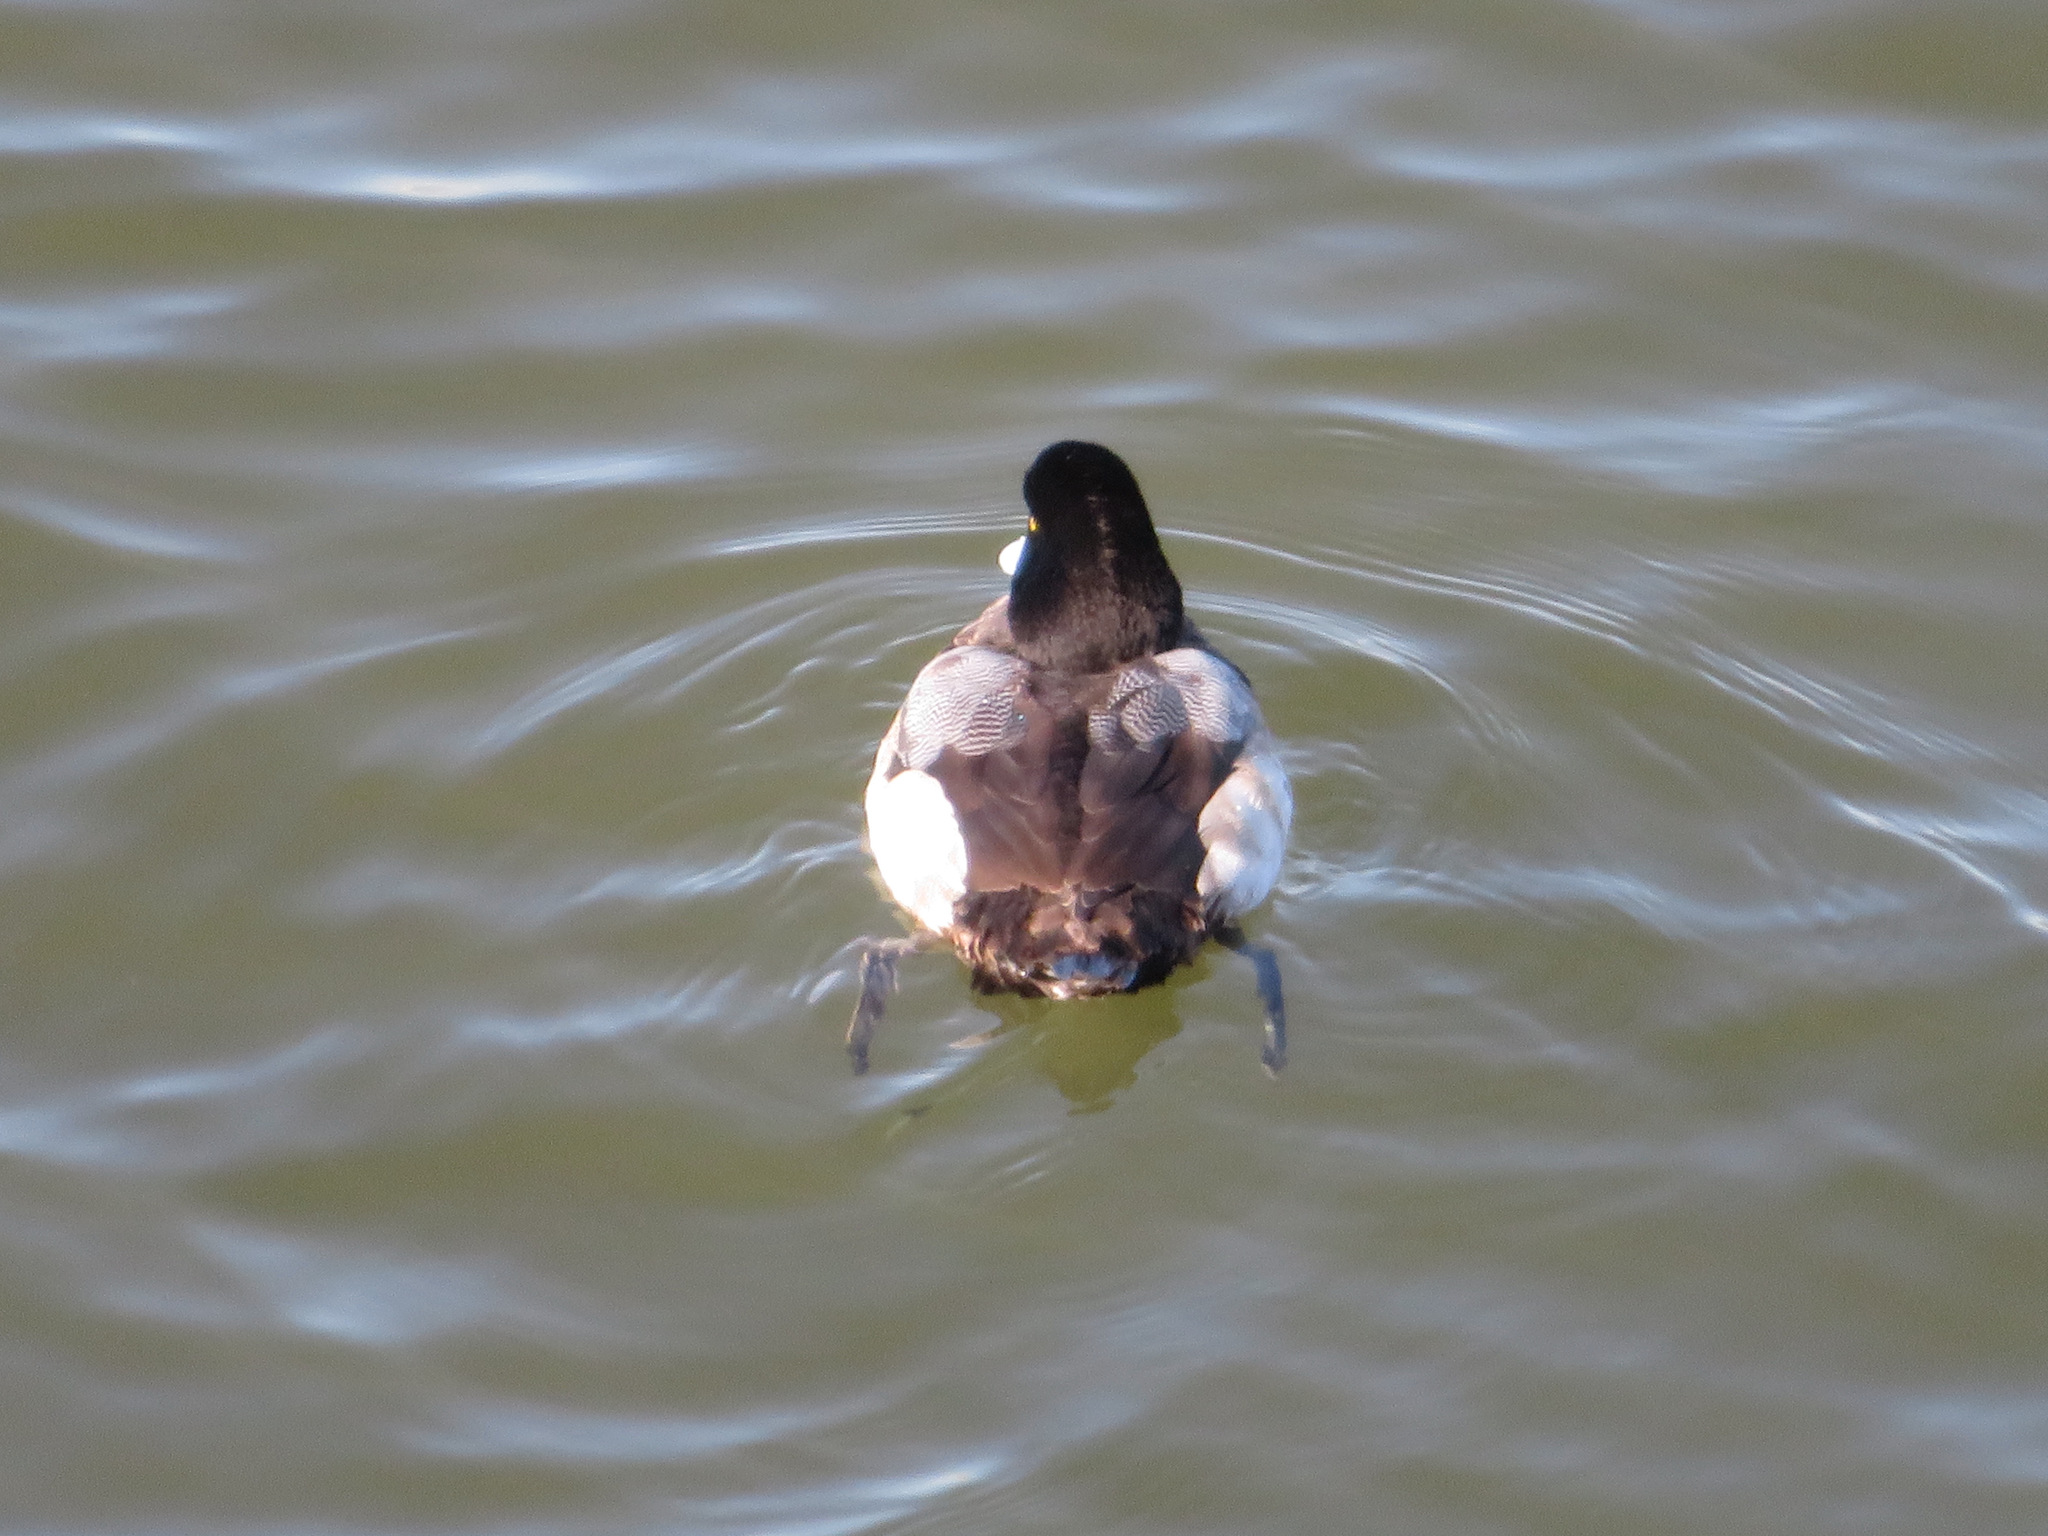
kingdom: Animalia
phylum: Chordata
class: Aves
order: Anseriformes
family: Anatidae
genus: Aythya
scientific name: Aythya marila
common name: Greater scaup
